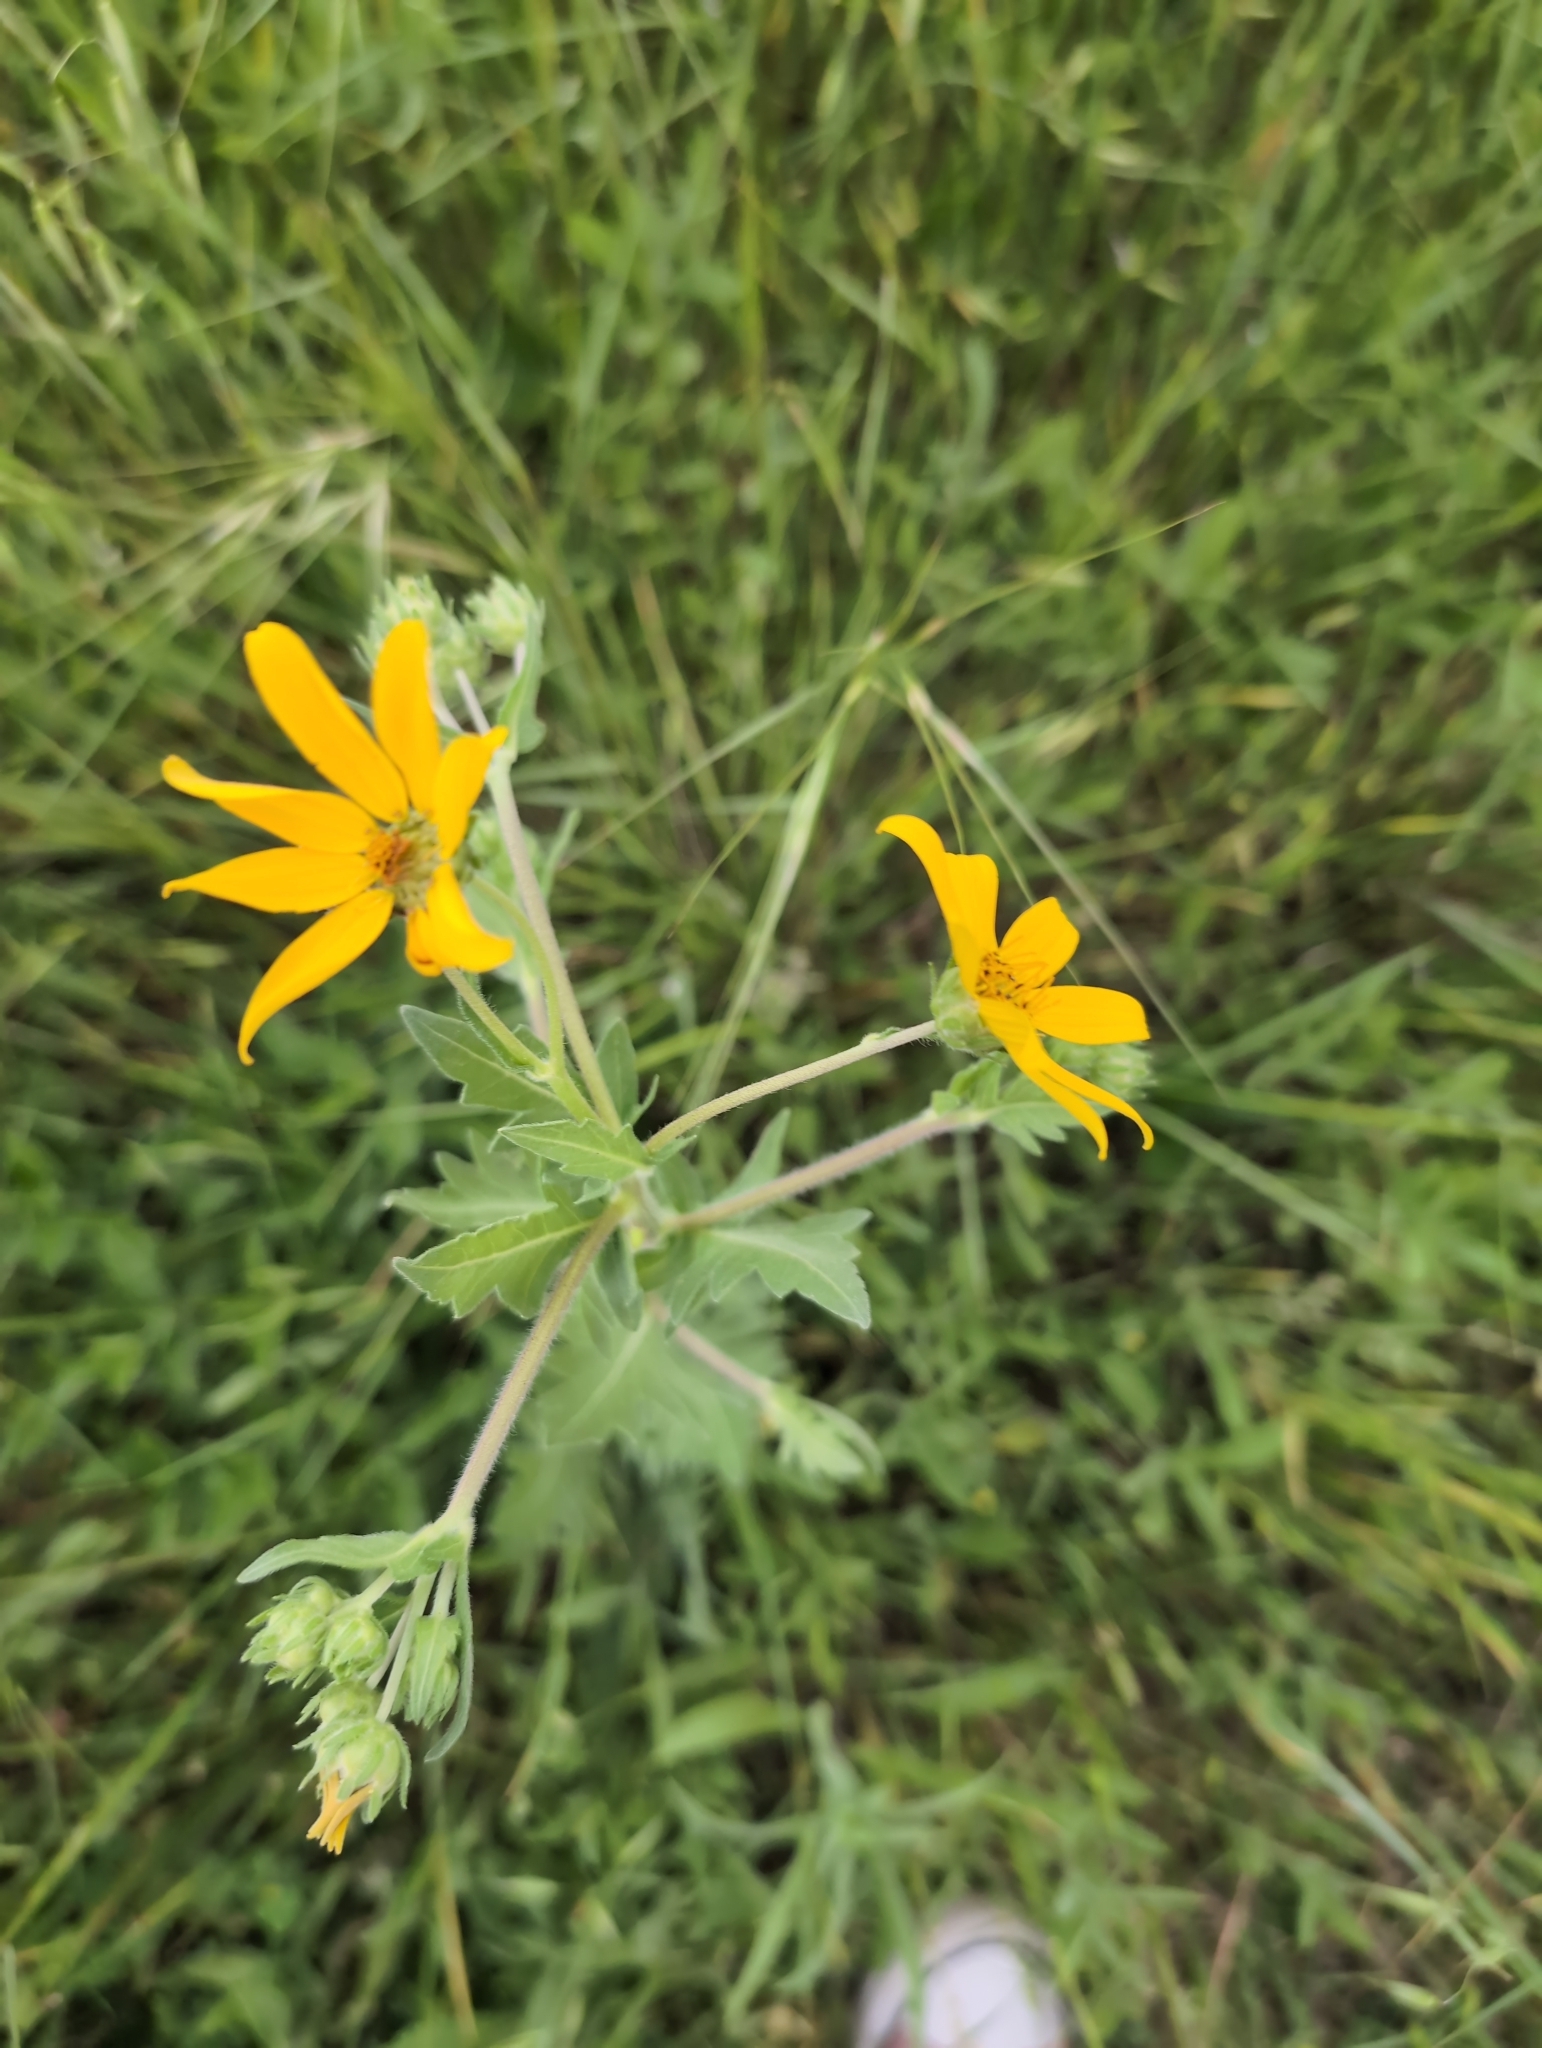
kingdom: Plantae
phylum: Tracheophyta
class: Magnoliopsida
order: Asterales
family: Asteraceae
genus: Engelmannia
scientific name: Engelmannia peristenia
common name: Engelmann's daisy
